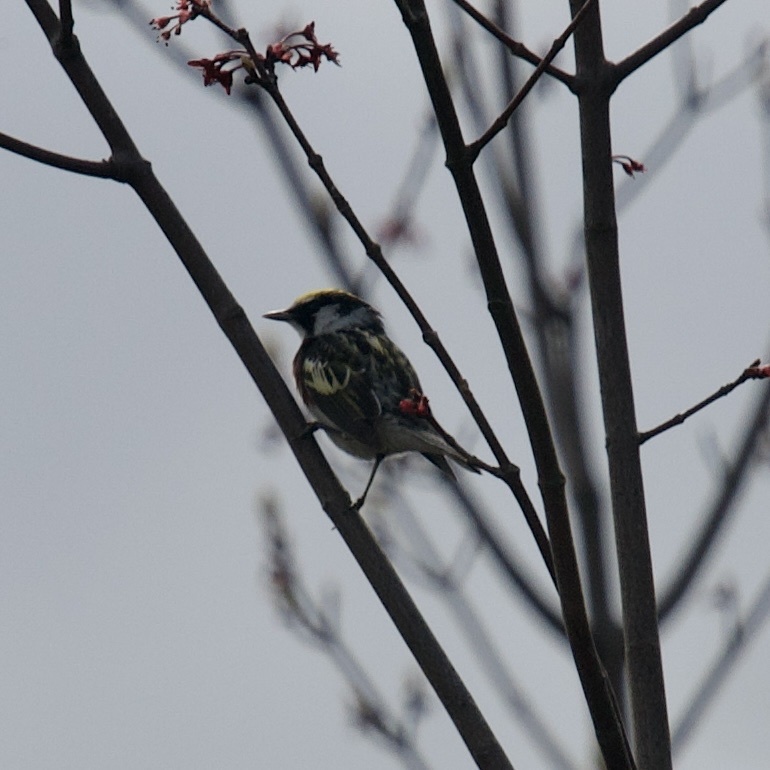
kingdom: Animalia
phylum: Chordata
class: Aves
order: Passeriformes
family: Parulidae
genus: Setophaga
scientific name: Setophaga pensylvanica
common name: Chestnut-sided warbler
